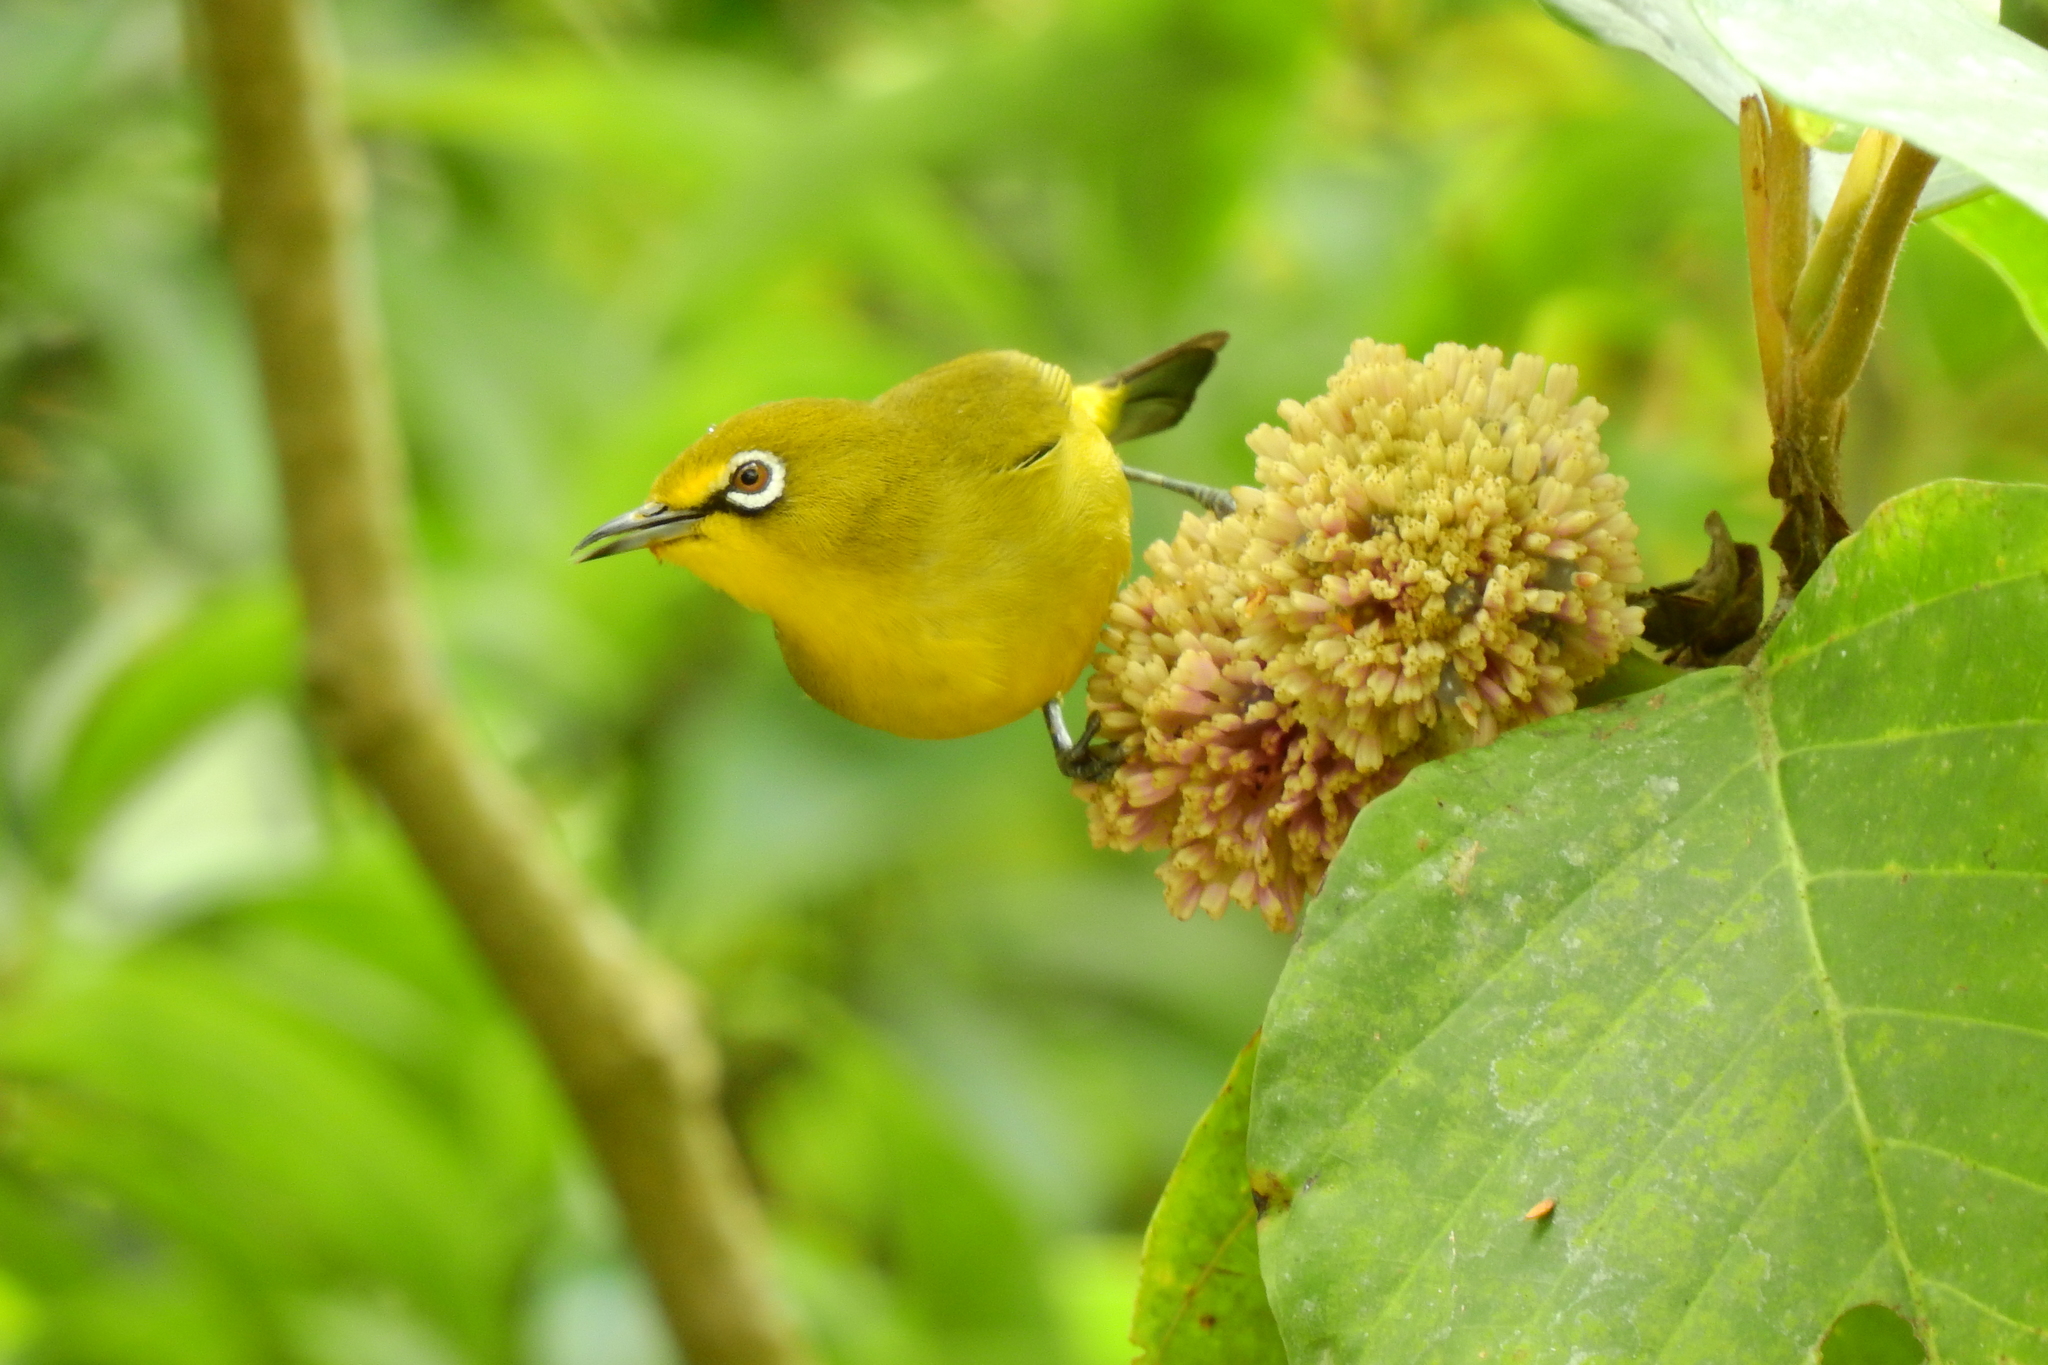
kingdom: Animalia
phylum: Chordata
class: Aves
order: Passeriformes
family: Zosteropidae
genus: Zosterops
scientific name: Zosterops melanurus
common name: Sangkar white-eye
